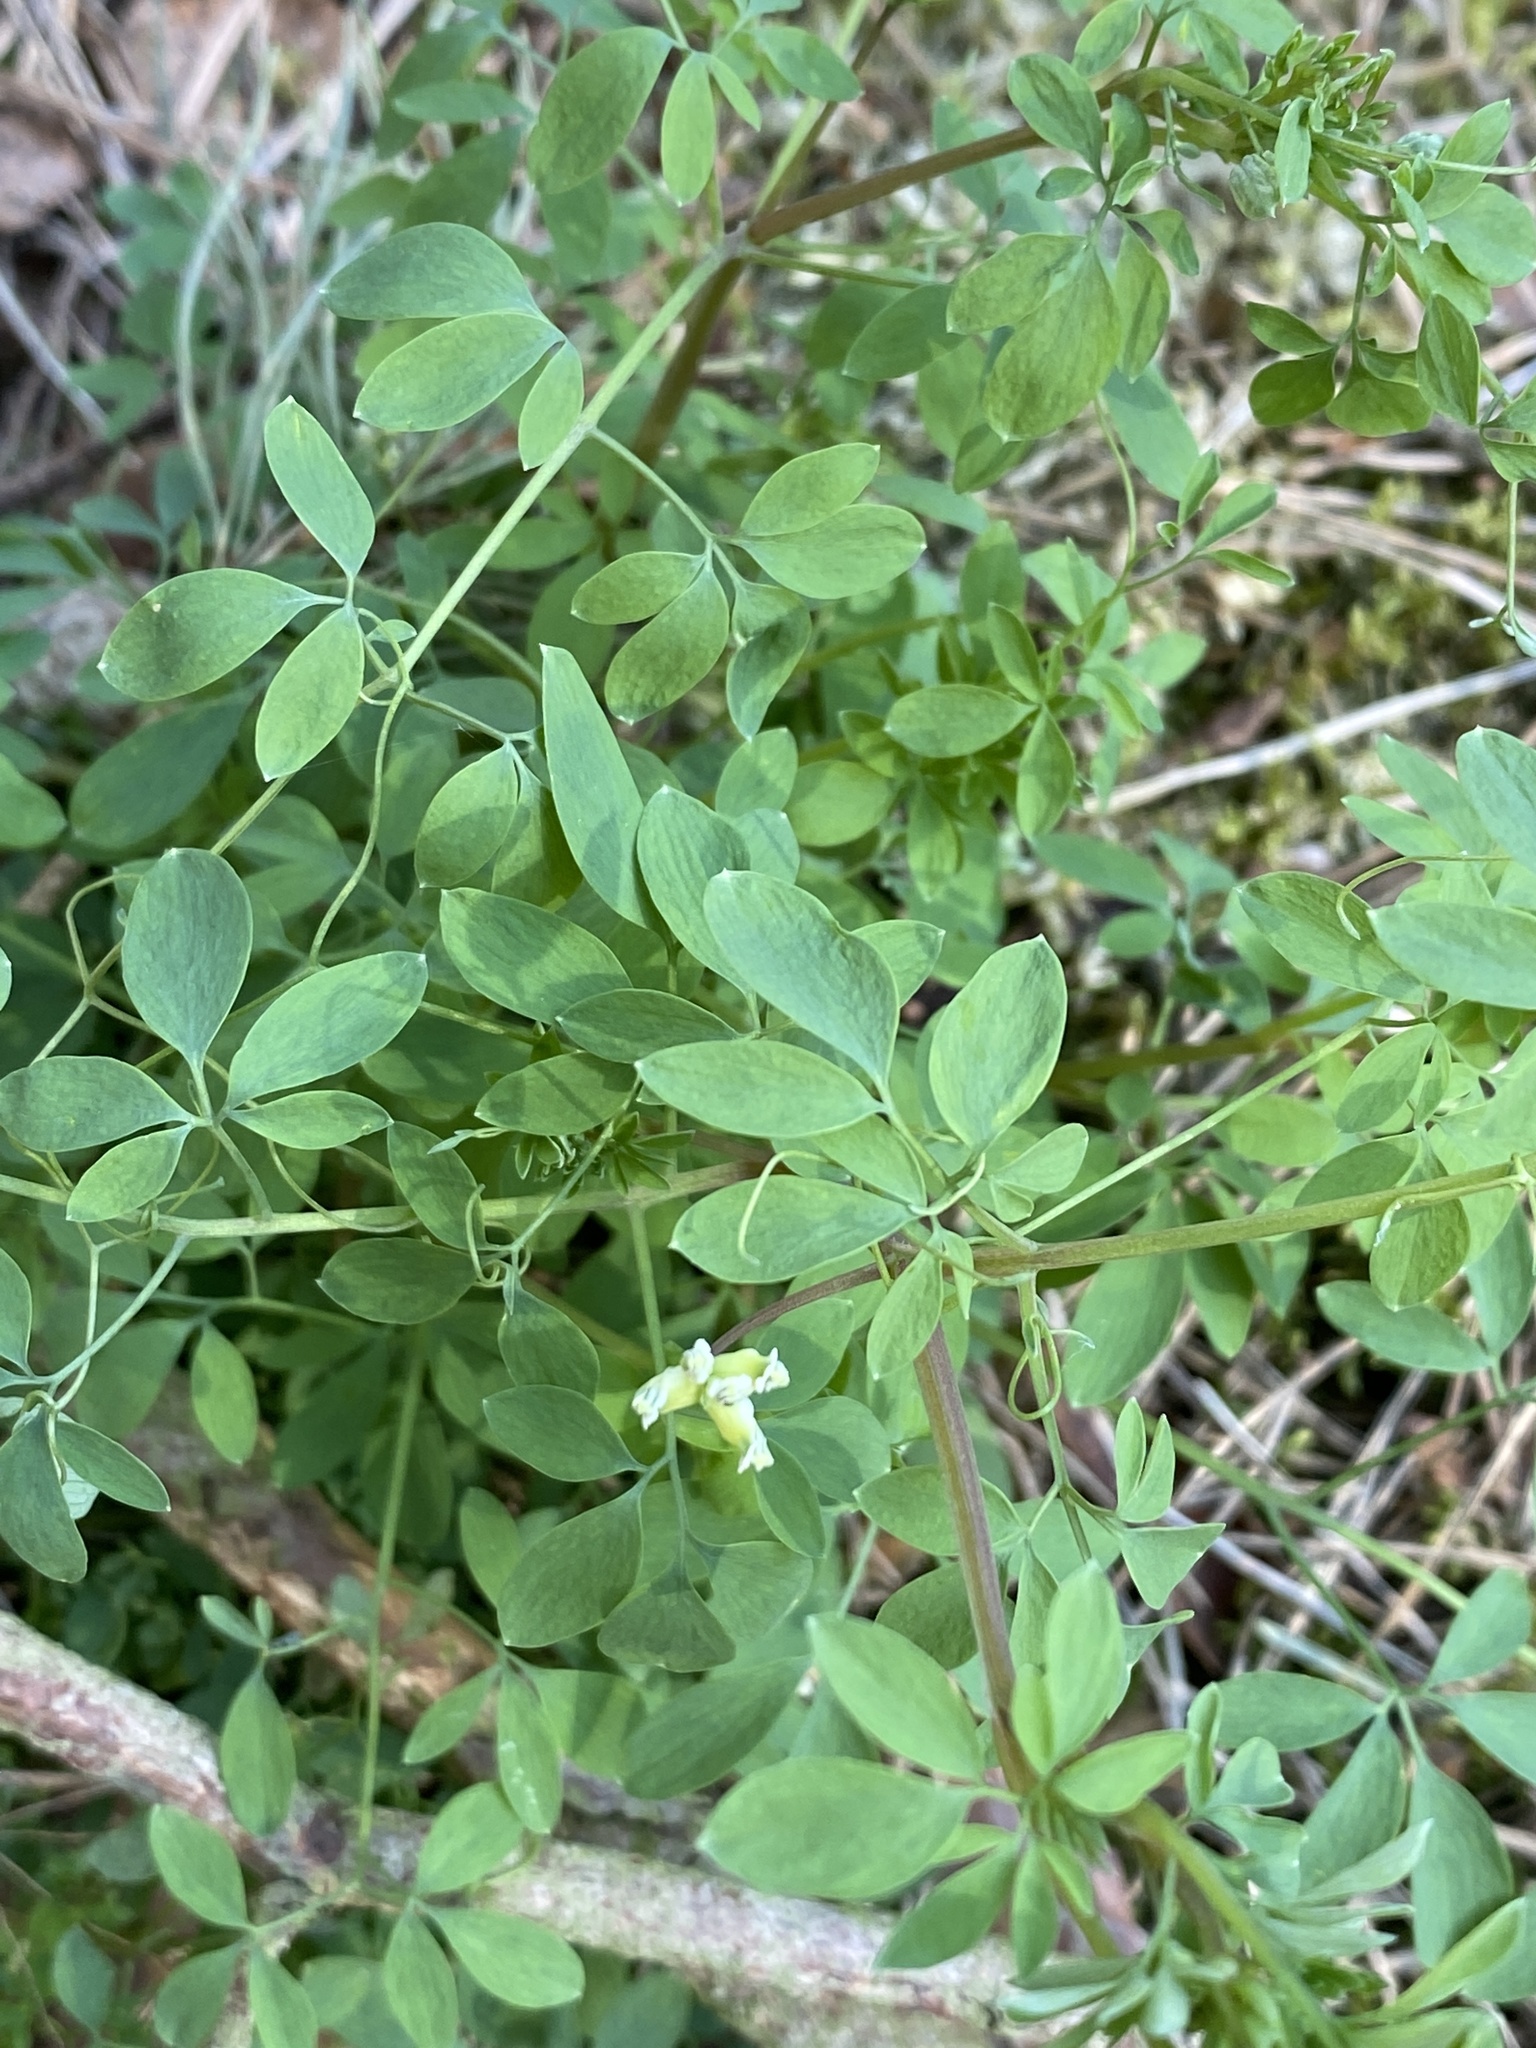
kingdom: Plantae
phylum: Tracheophyta
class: Magnoliopsida
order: Ranunculales
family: Papaveraceae
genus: Ceratocapnos
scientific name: Ceratocapnos claviculata
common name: Climbing corydalis
